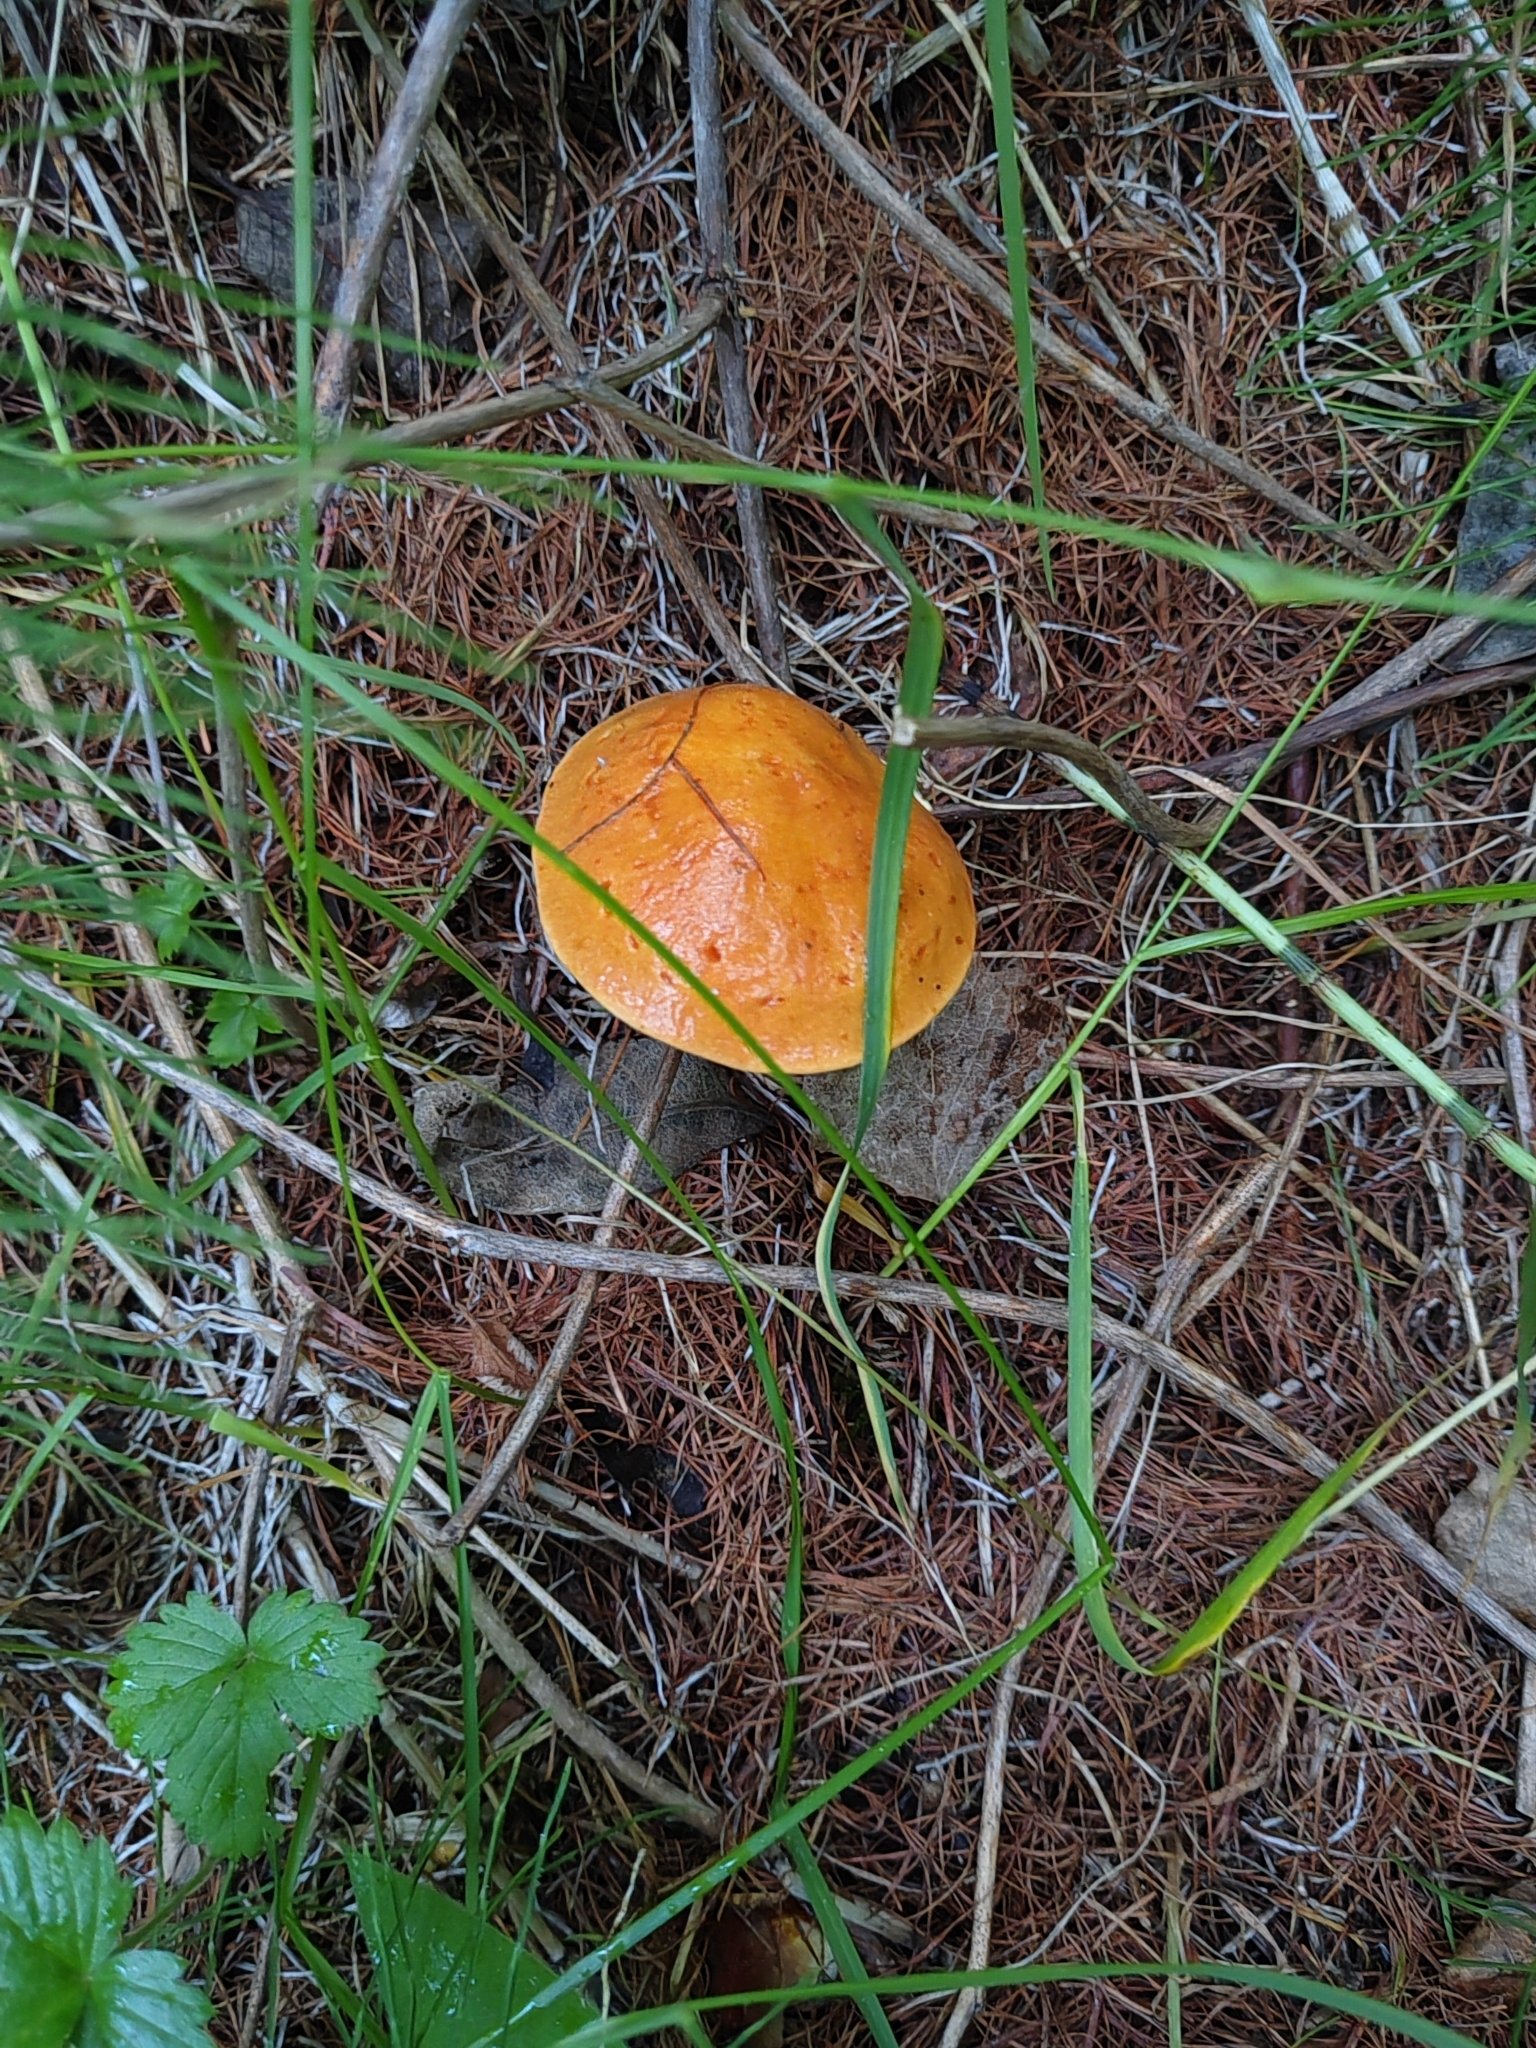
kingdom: Fungi
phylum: Basidiomycota
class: Agaricomycetes
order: Boletales
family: Suillaceae
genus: Suillus
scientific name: Suillus grevillei
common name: Larch bolete
